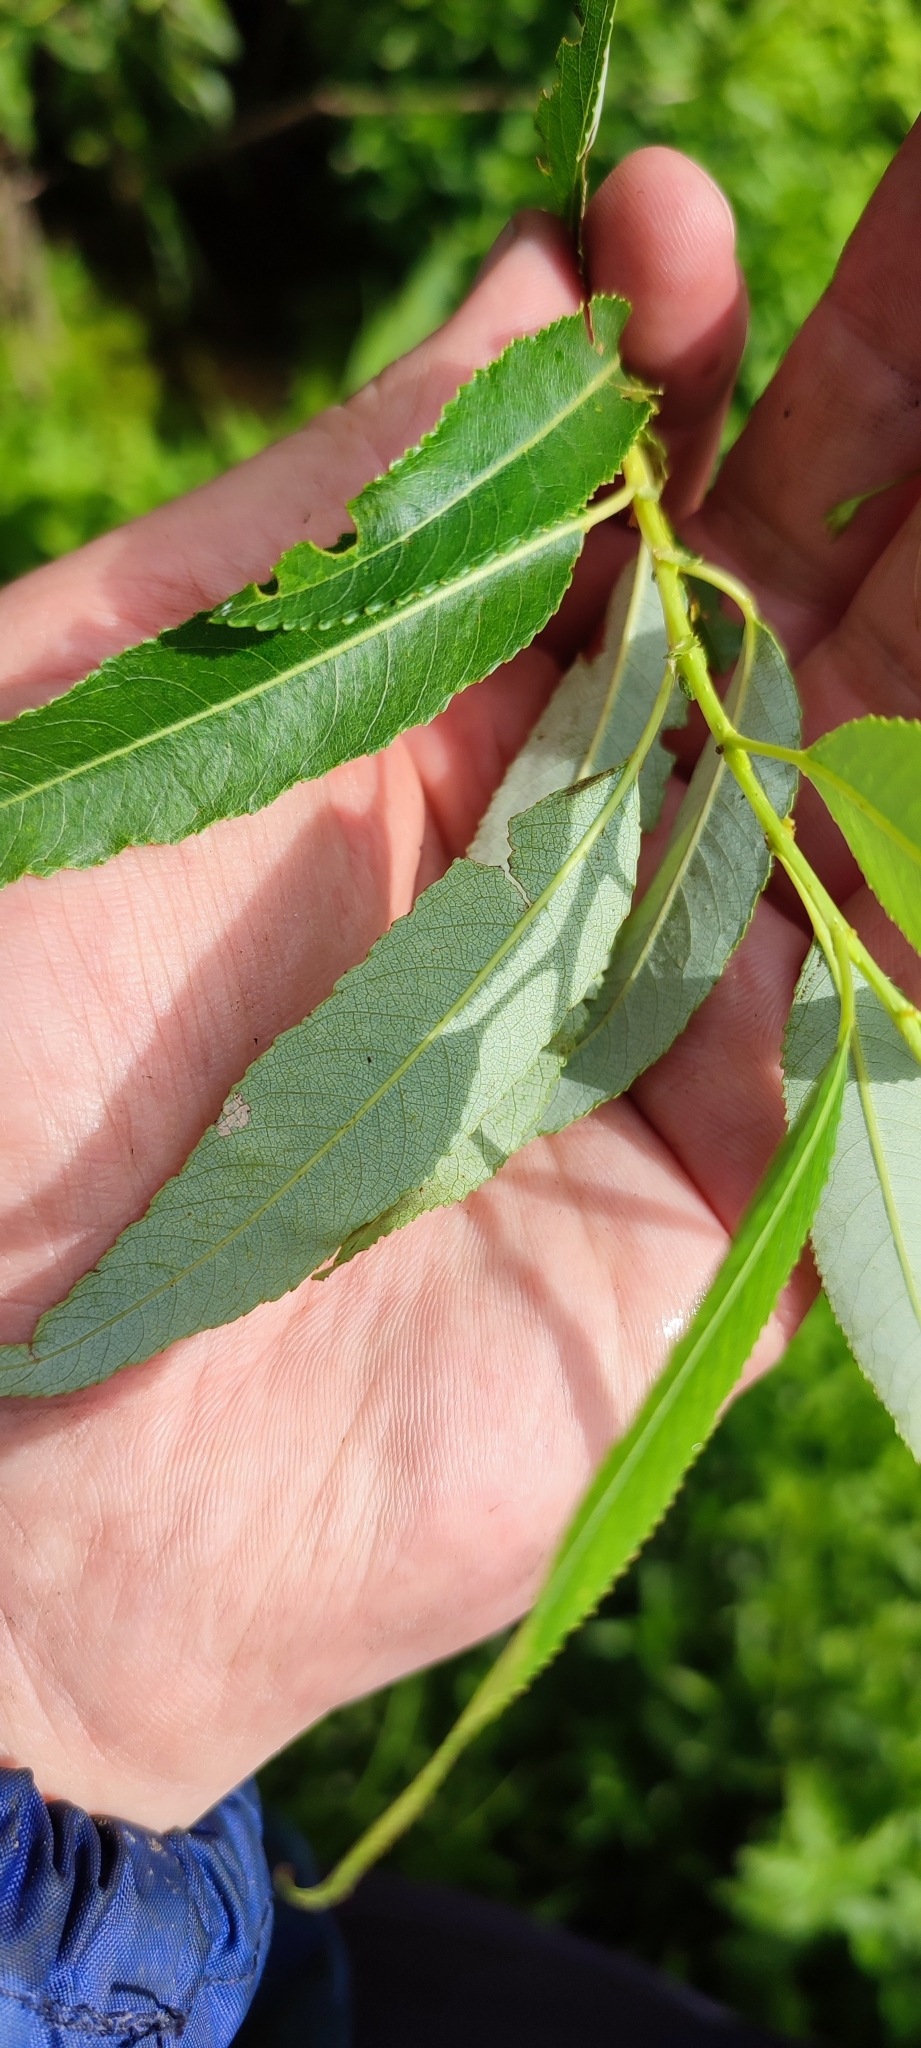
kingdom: Plantae
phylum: Tracheophyta
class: Magnoliopsida
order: Malpighiales
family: Salicaceae
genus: Salix
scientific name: Salix triandra
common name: Almond willow
